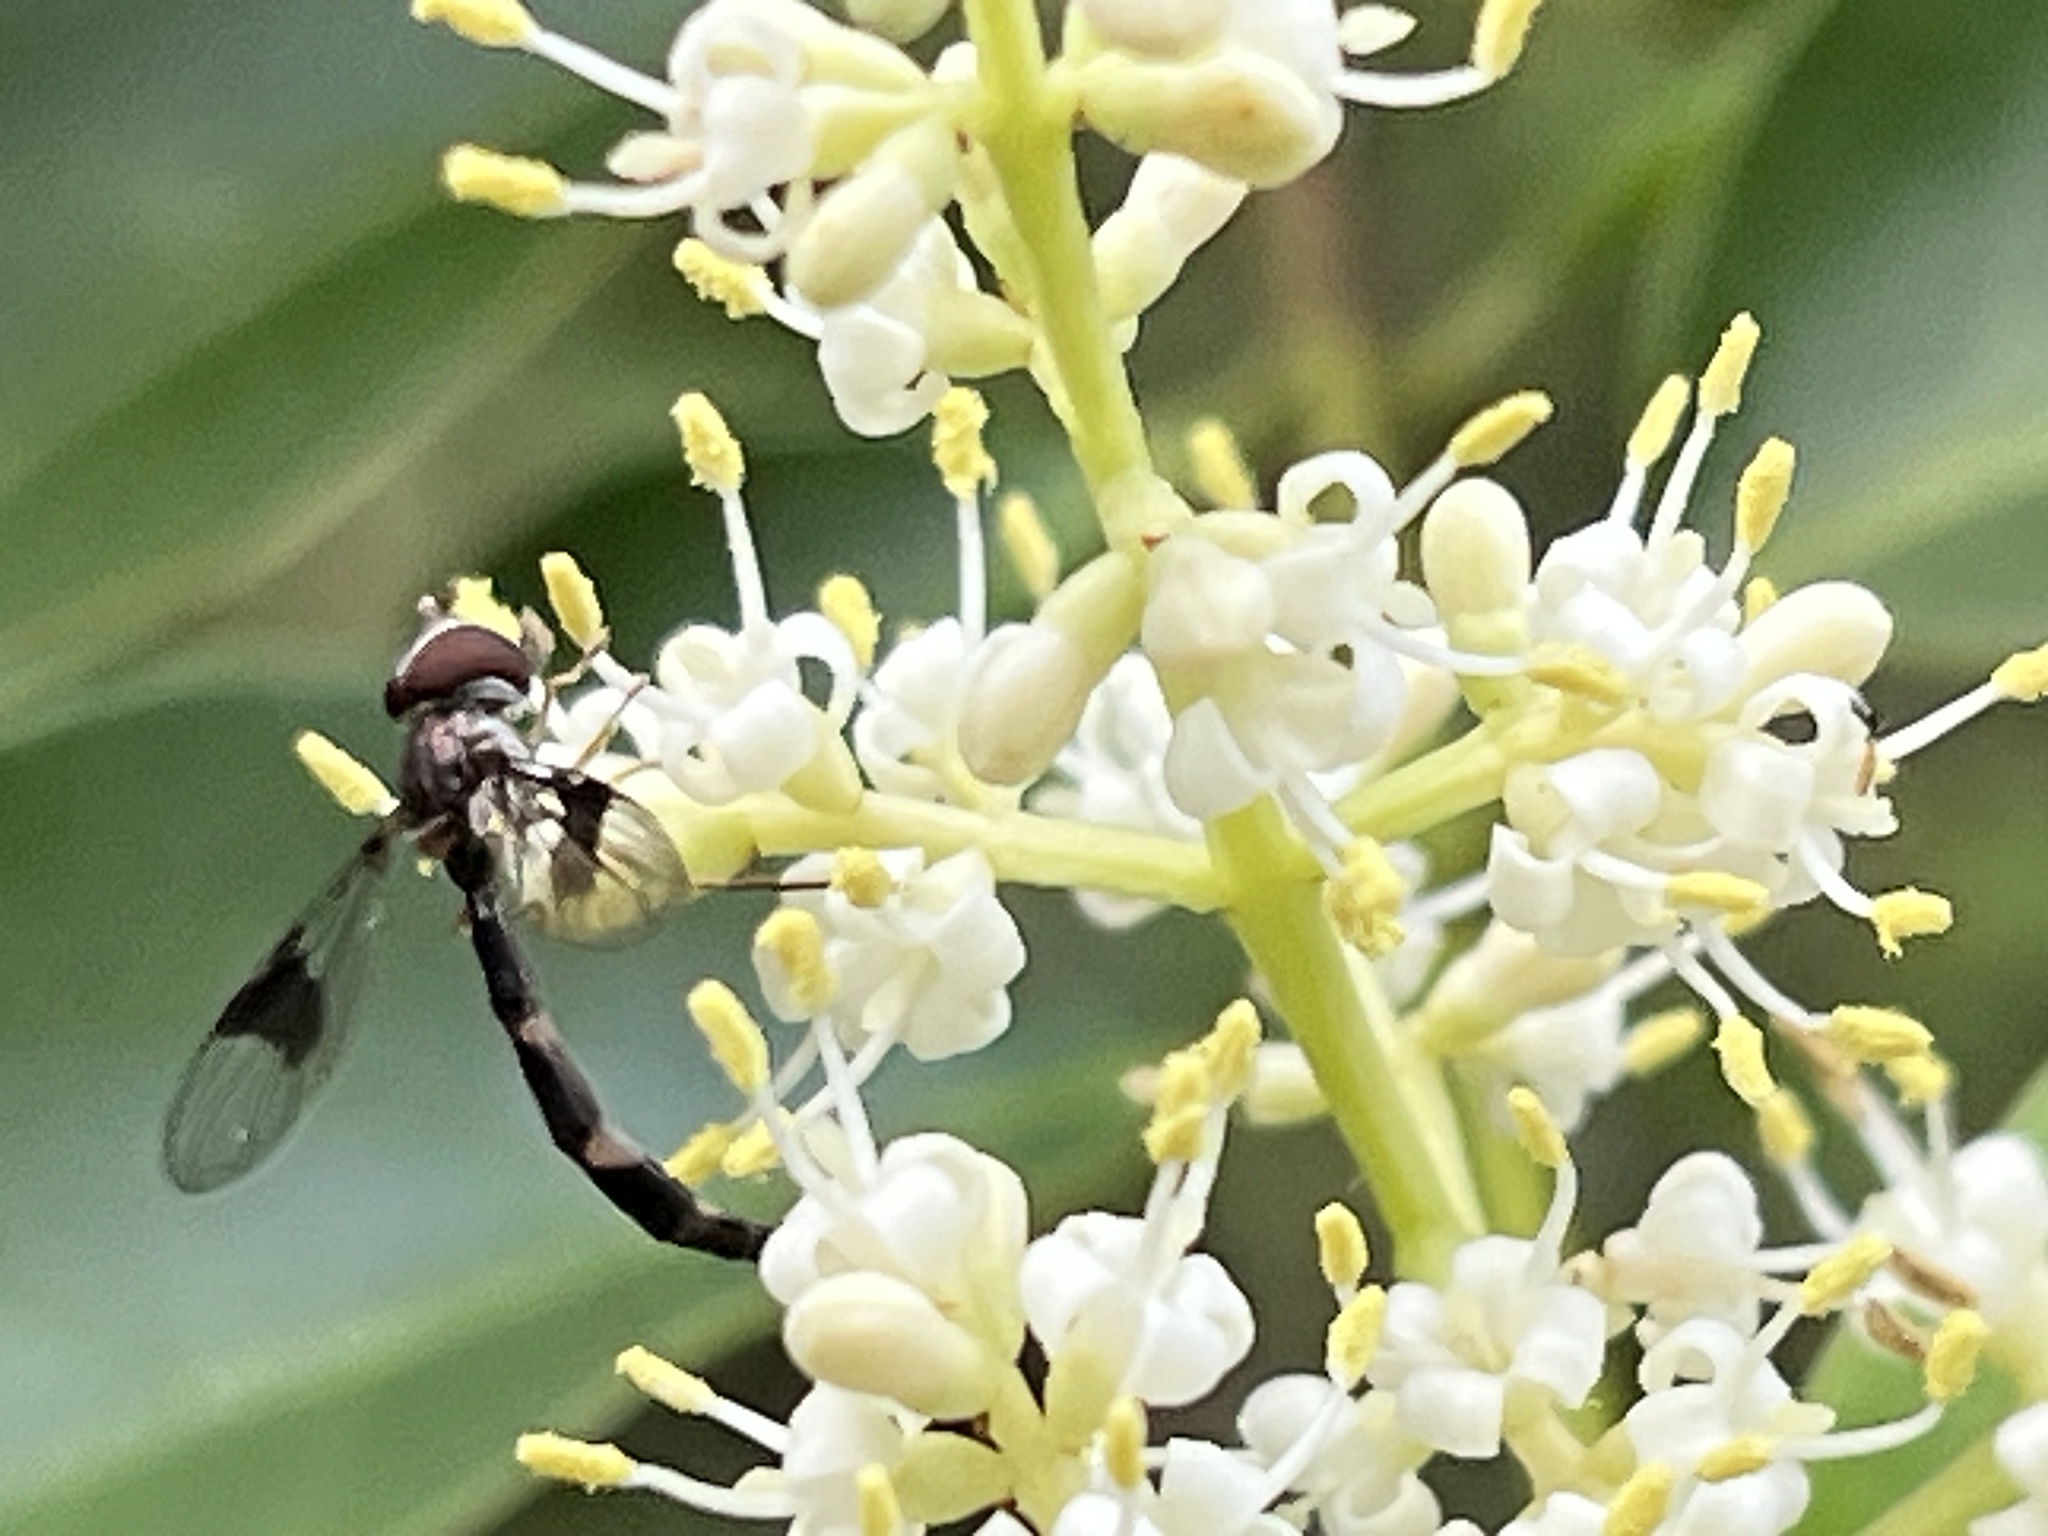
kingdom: Animalia
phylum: Arthropoda
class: Insecta
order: Diptera
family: Syrphidae
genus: Hypocritanus
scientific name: Hypocritanus fascipennis
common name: Eastern band-winged hover fly
